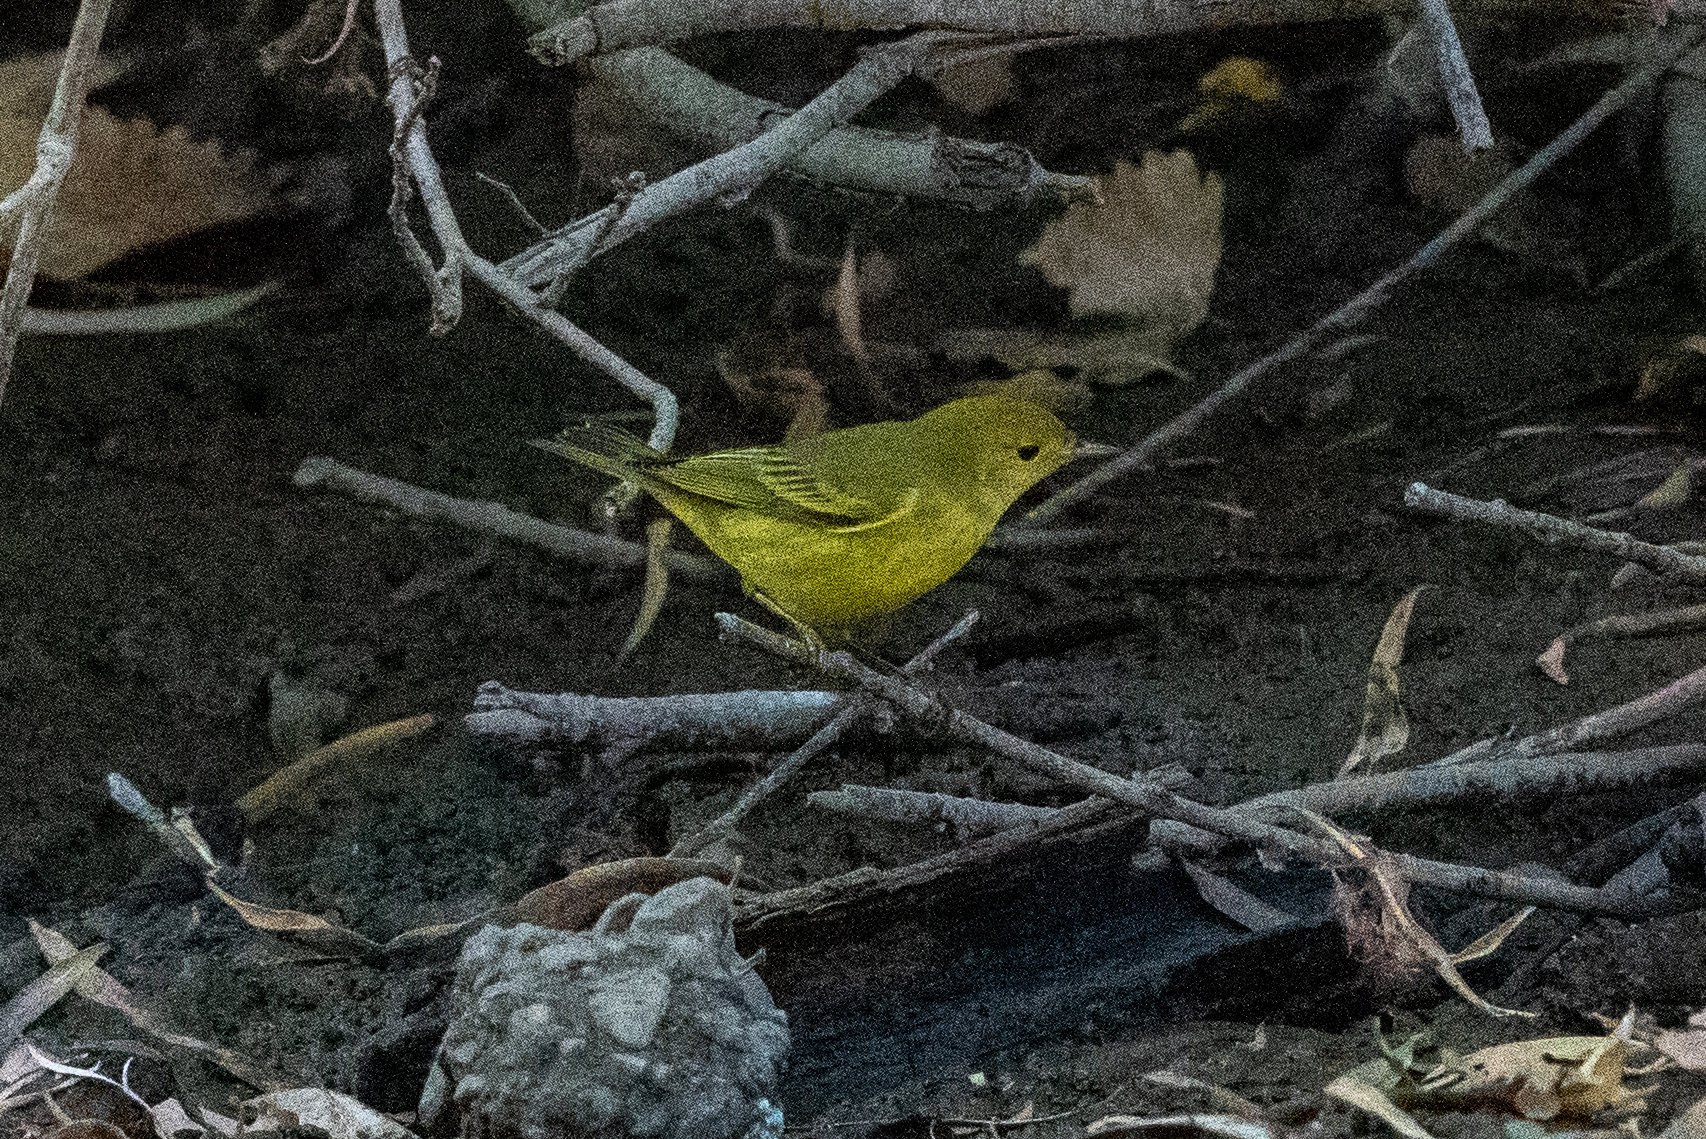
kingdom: Animalia
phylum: Chordata
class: Aves
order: Passeriformes
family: Parulidae
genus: Setophaga
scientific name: Setophaga petechia
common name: Yellow warbler
